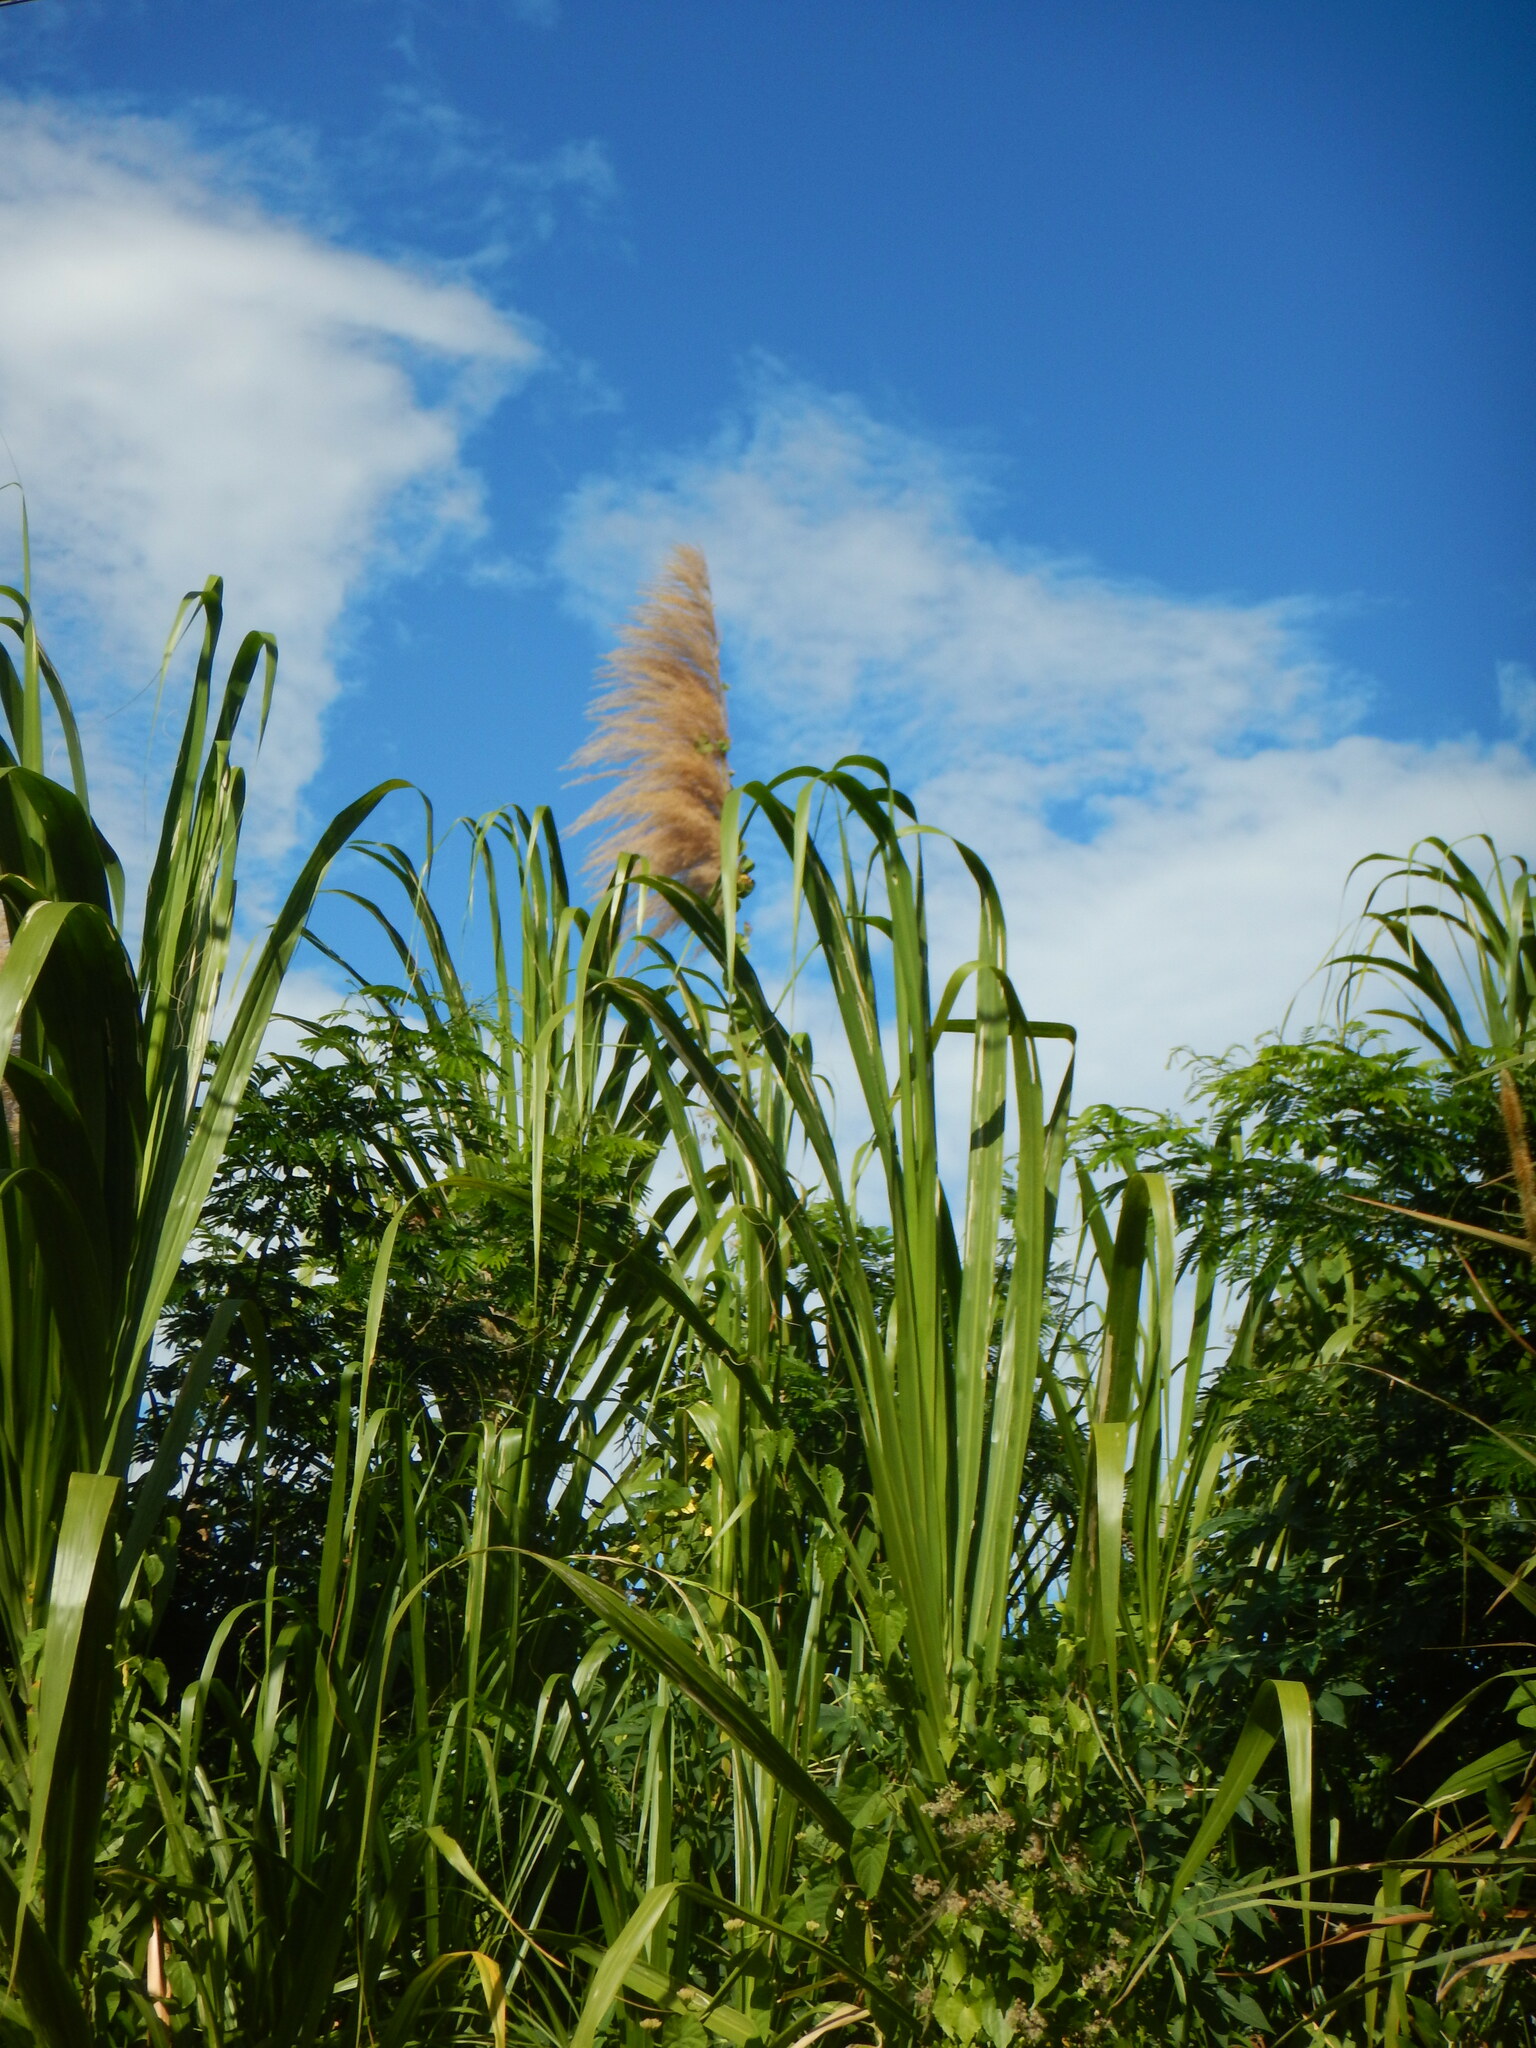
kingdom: Plantae
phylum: Tracheophyta
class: Liliopsida
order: Poales
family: Poaceae
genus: Gynerium
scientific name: Gynerium sagittatum
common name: Wild cane
